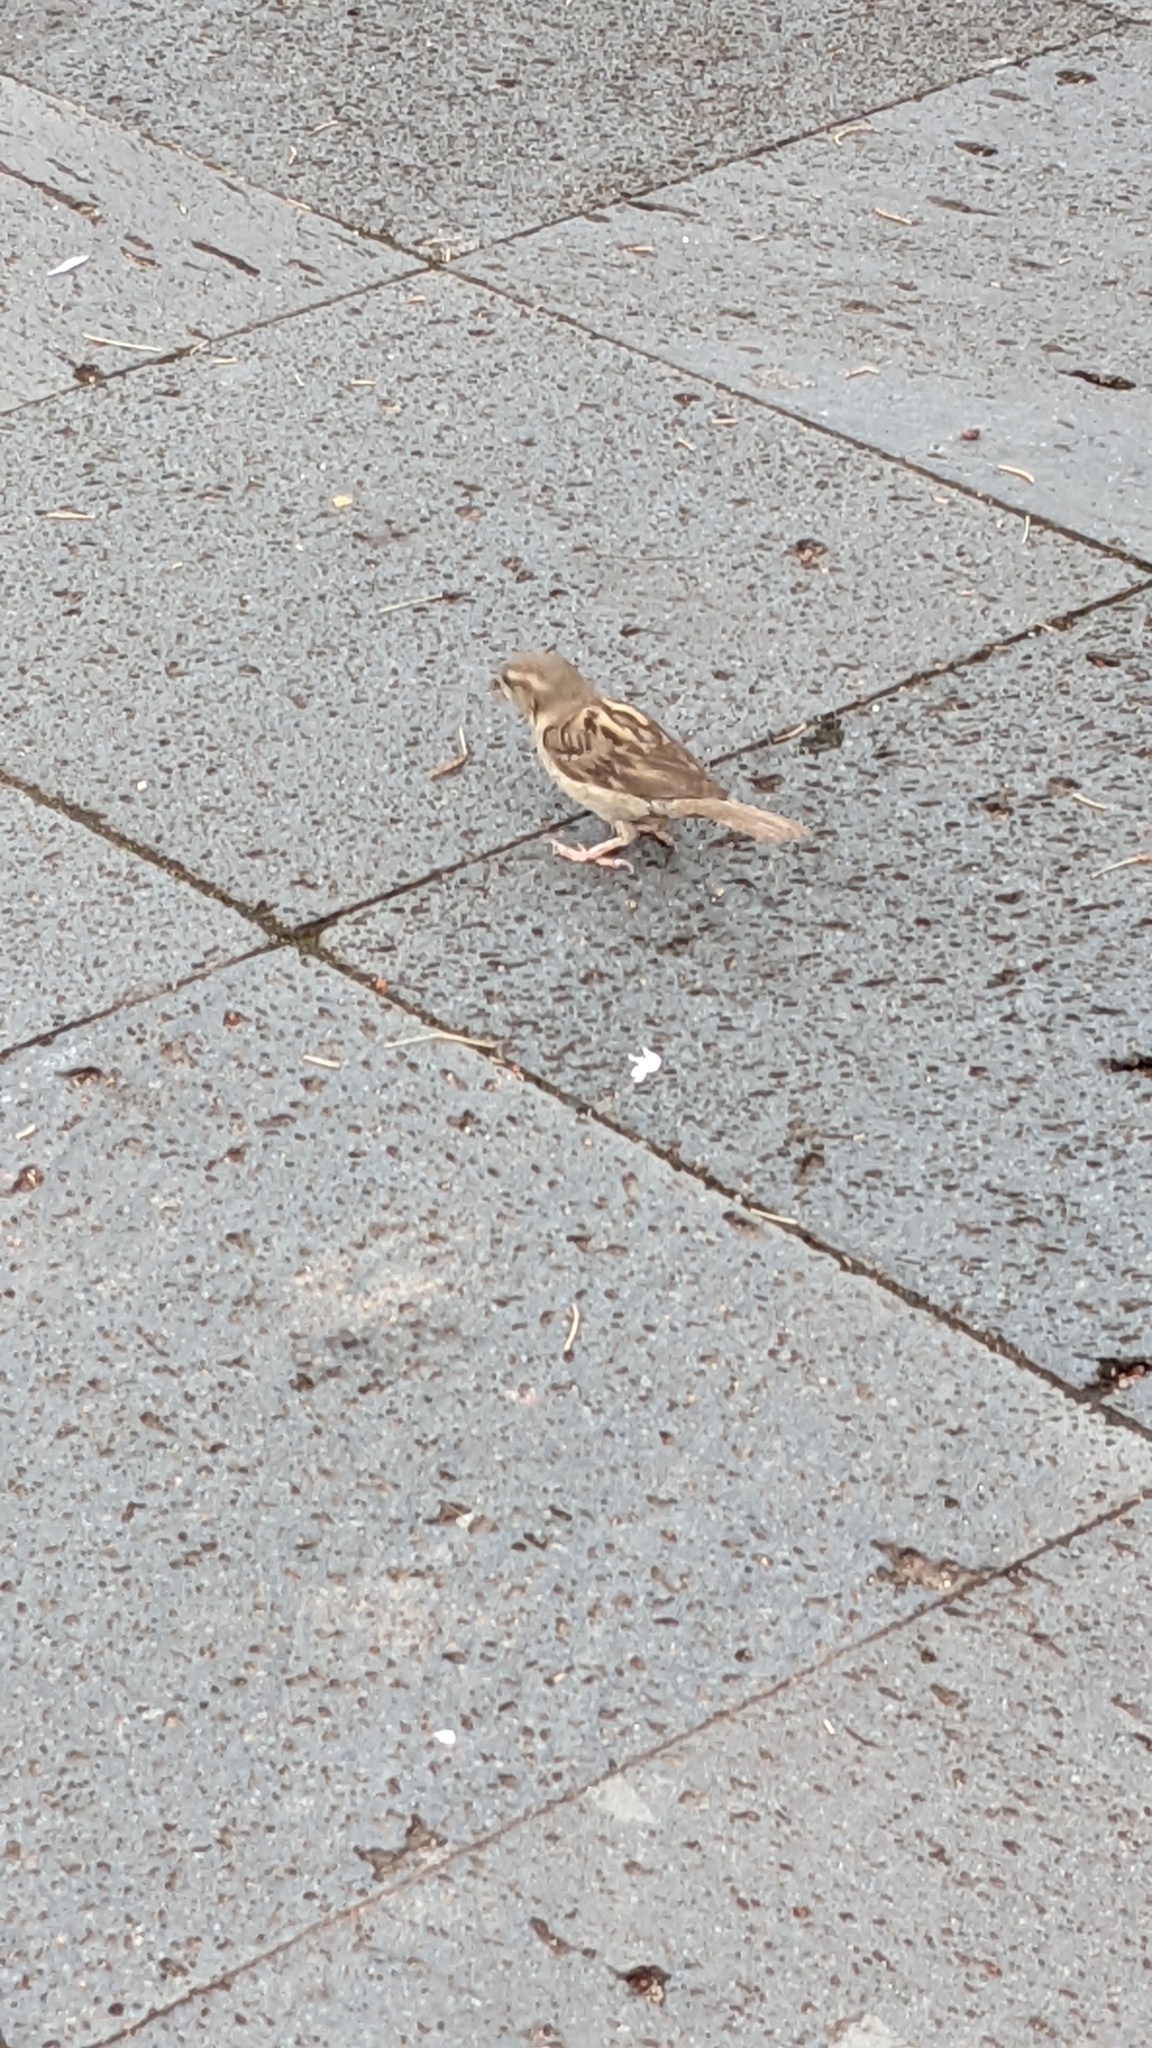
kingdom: Animalia
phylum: Chordata
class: Aves
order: Passeriformes
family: Passeridae
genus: Passer
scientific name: Passer domesticus
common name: House sparrow
